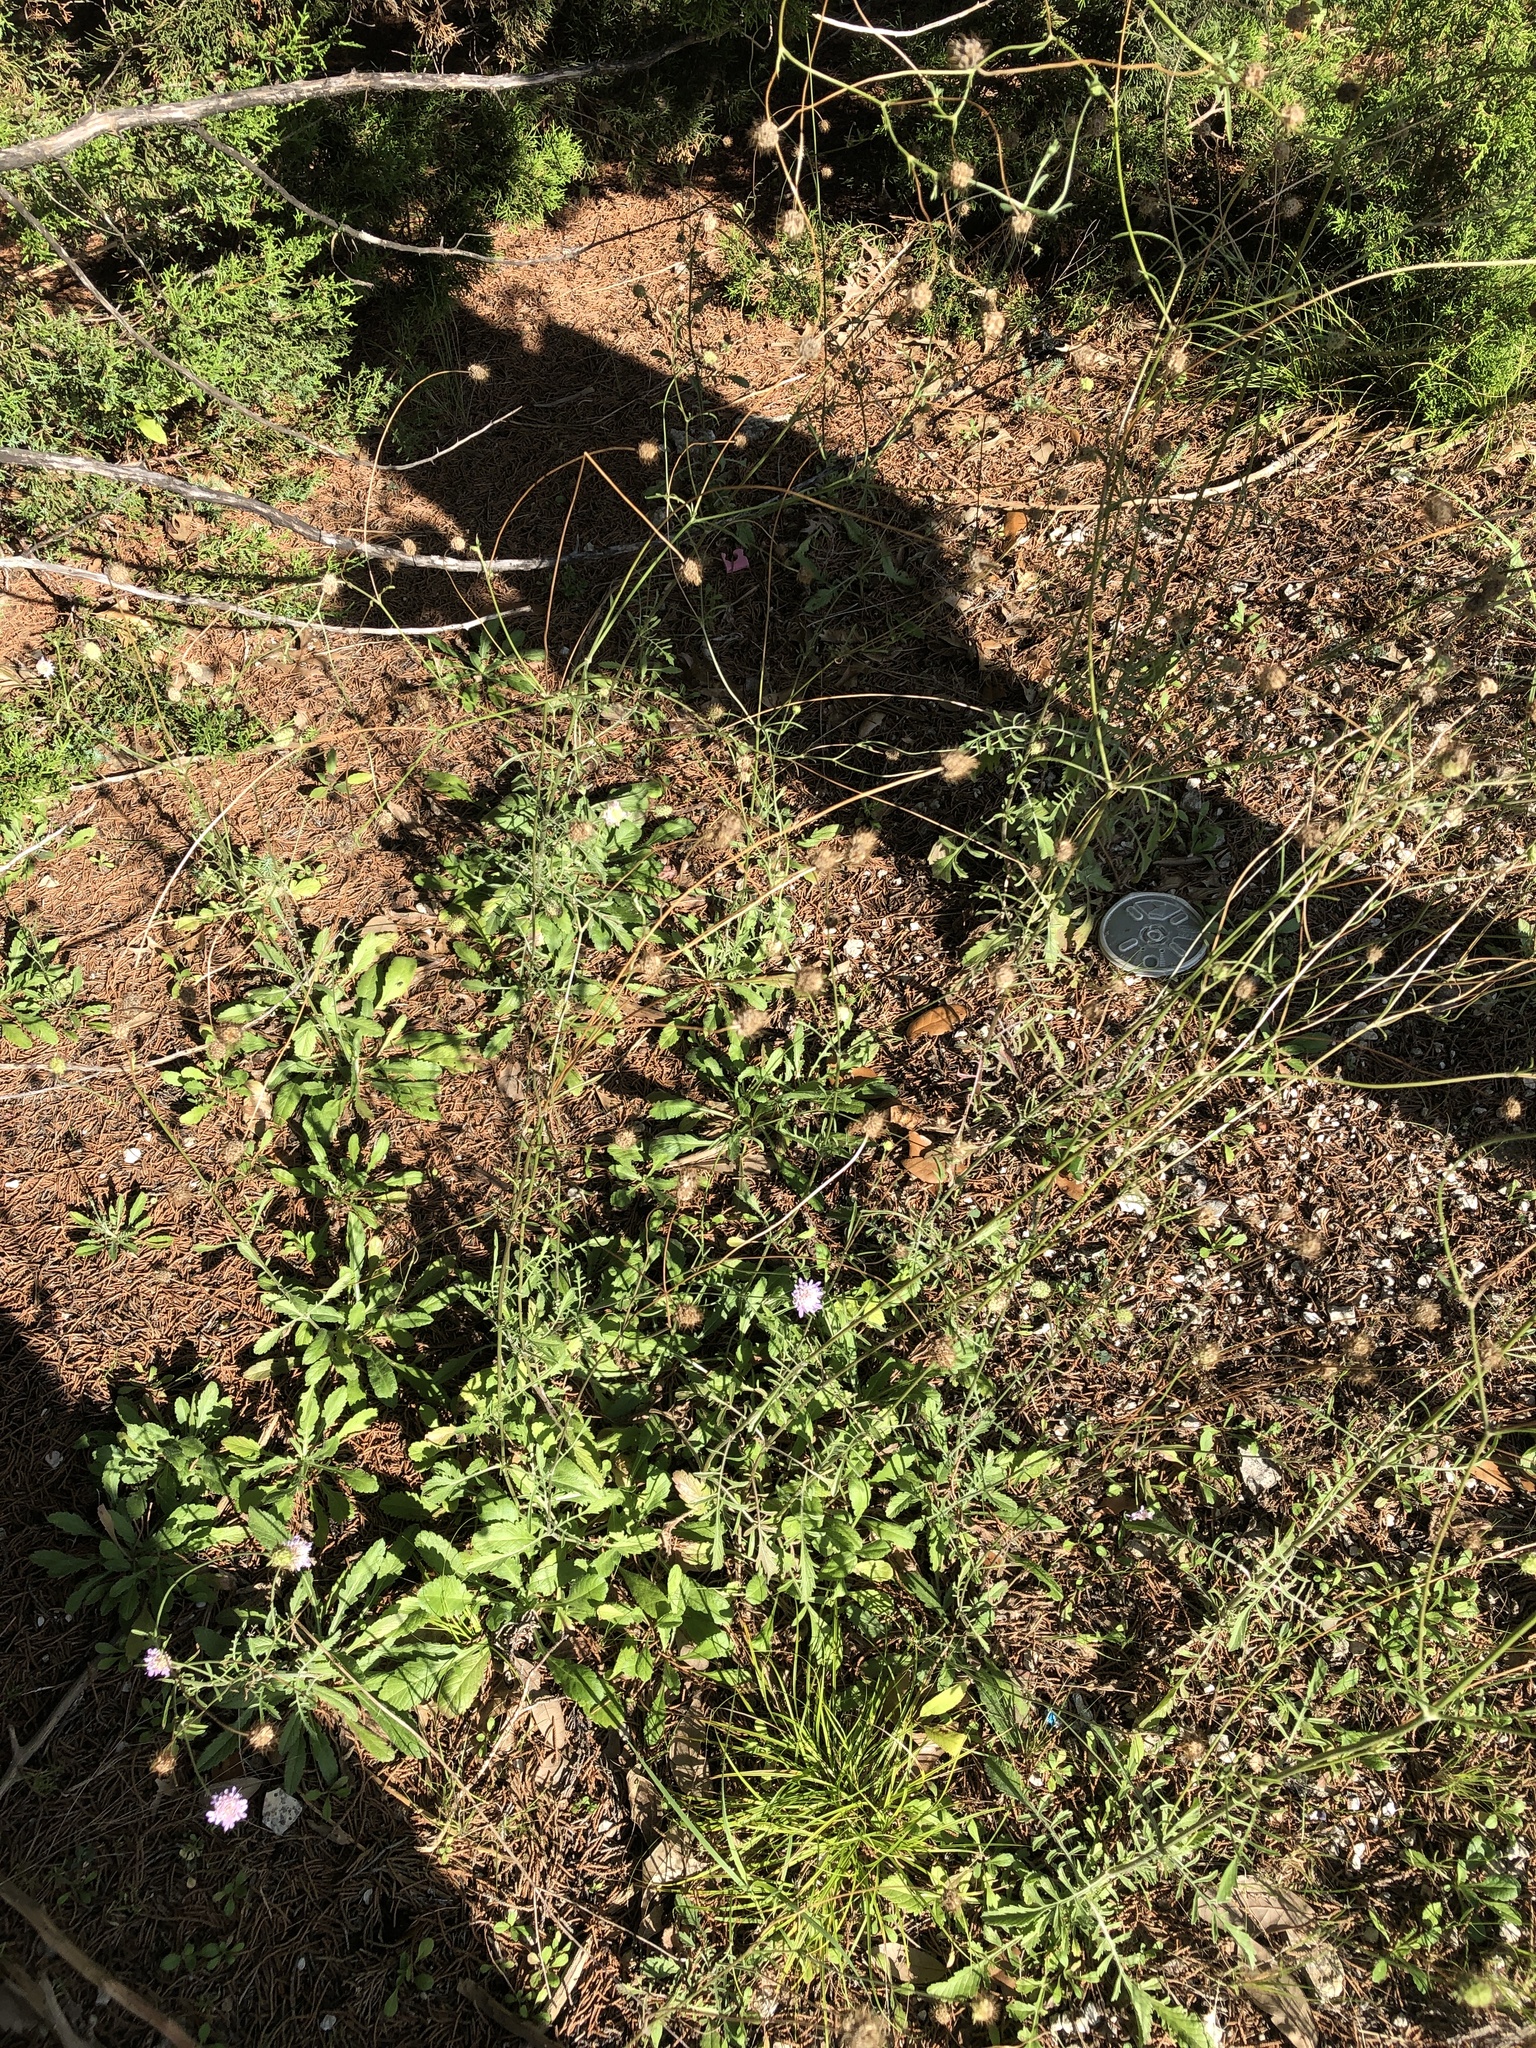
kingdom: Plantae
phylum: Tracheophyta
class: Magnoliopsida
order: Dipsacales
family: Caprifoliaceae
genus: Sixalix
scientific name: Sixalix atropurpurea
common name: Sweet scabious
